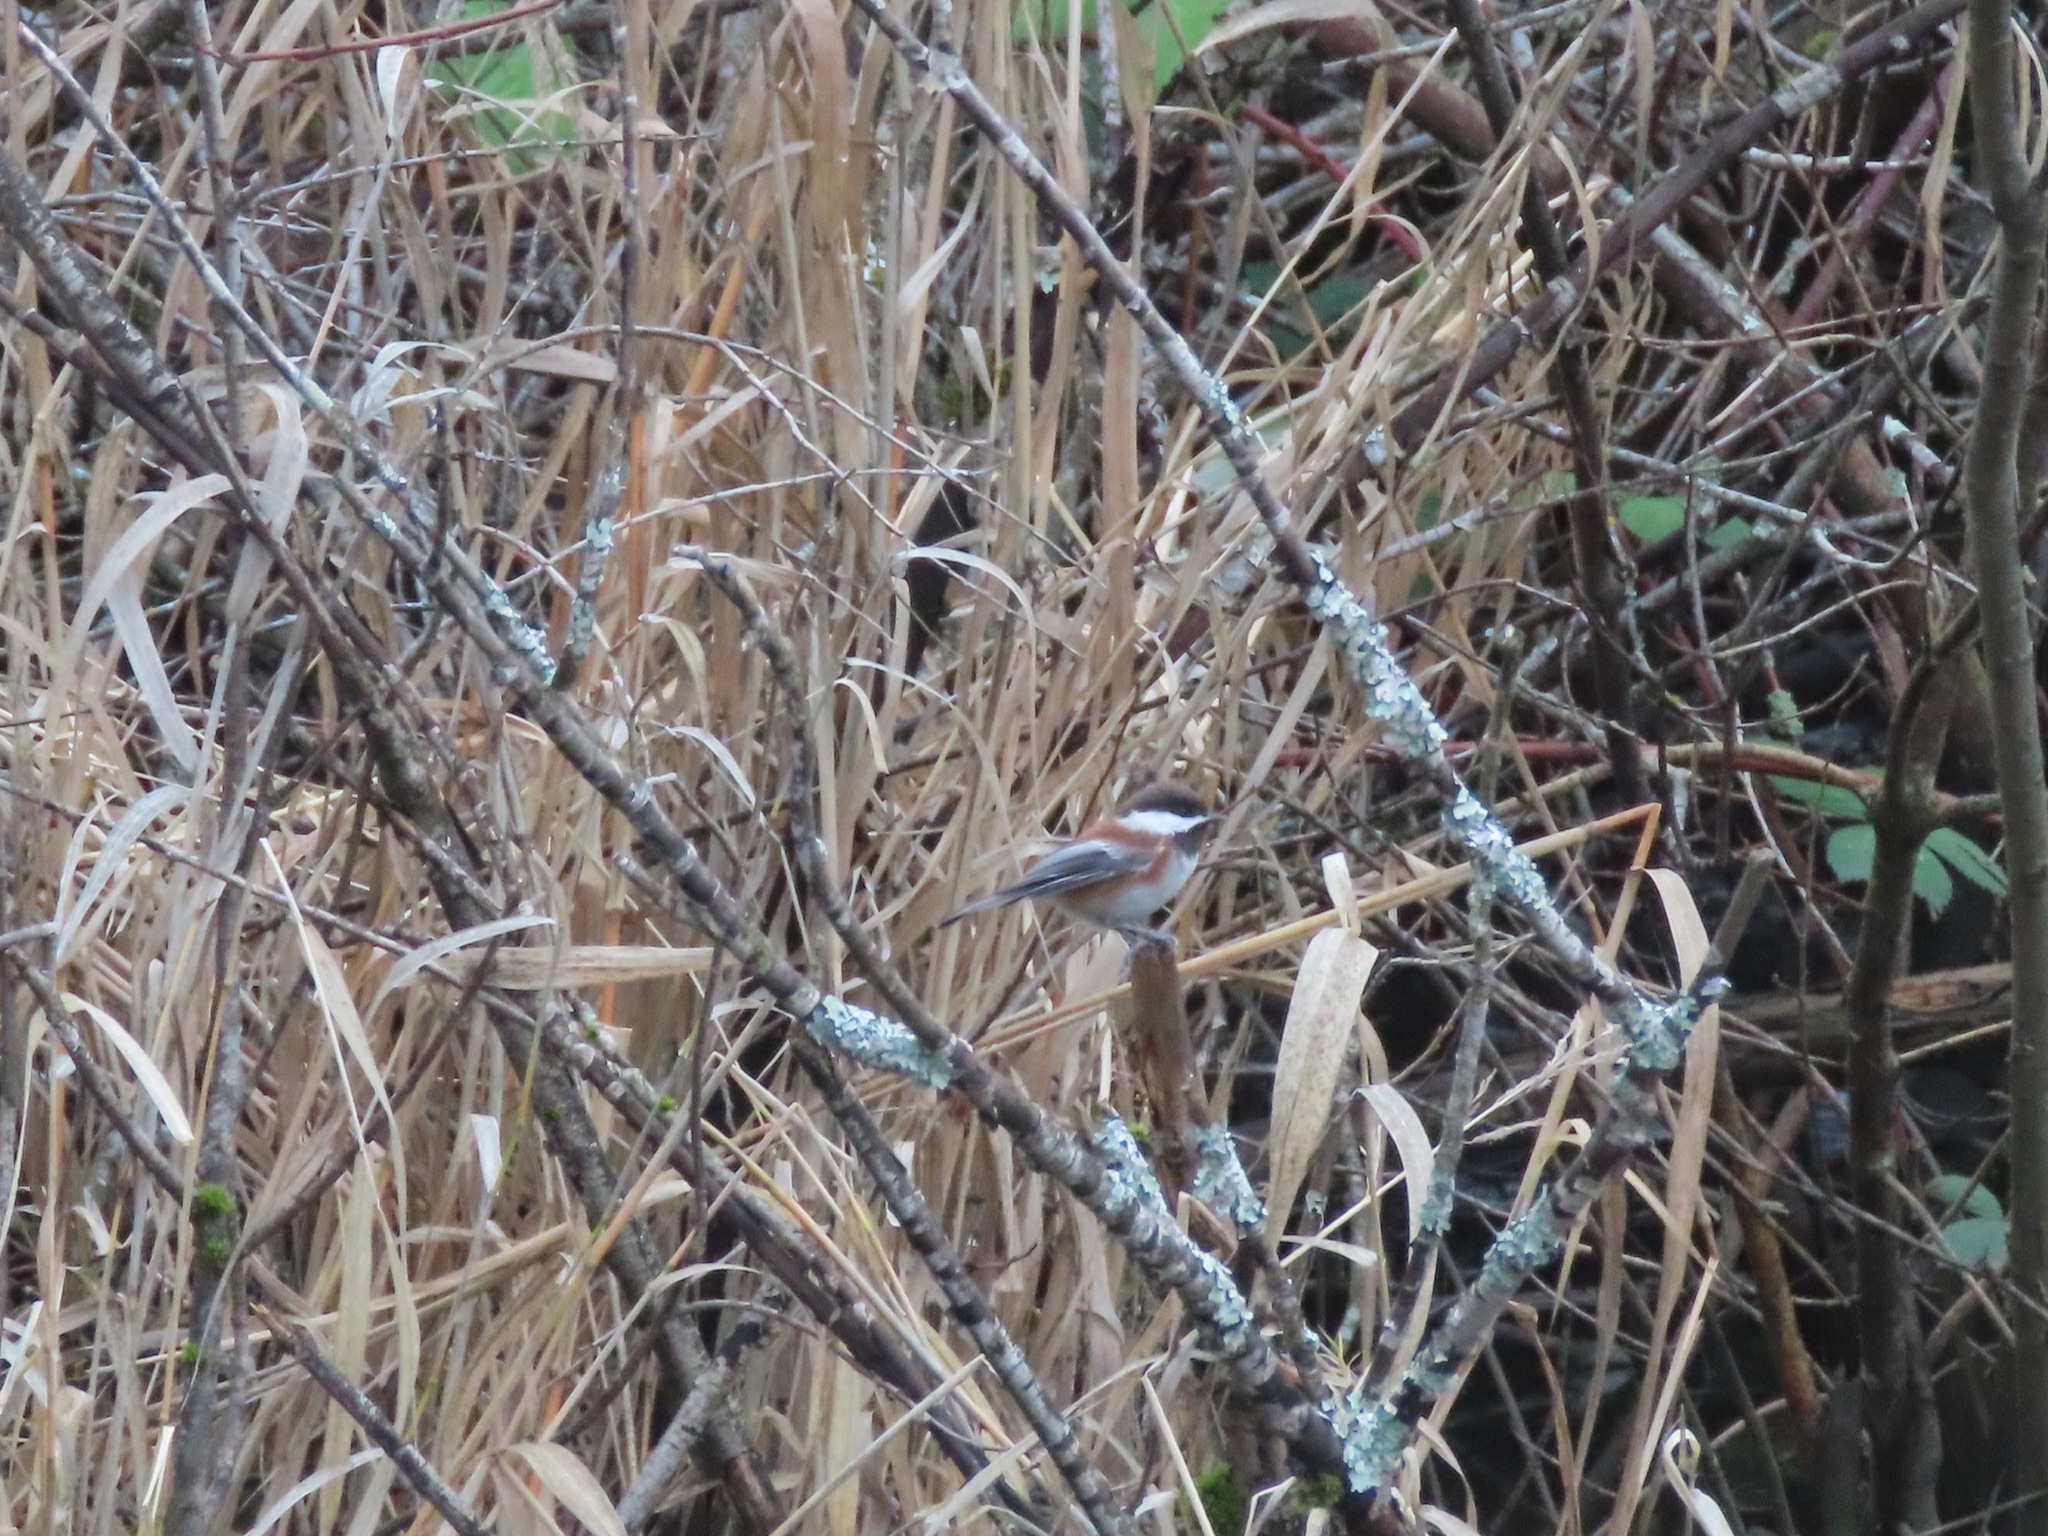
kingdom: Animalia
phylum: Chordata
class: Aves
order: Passeriformes
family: Paridae
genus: Poecile
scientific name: Poecile rufescens
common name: Chestnut-backed chickadee
